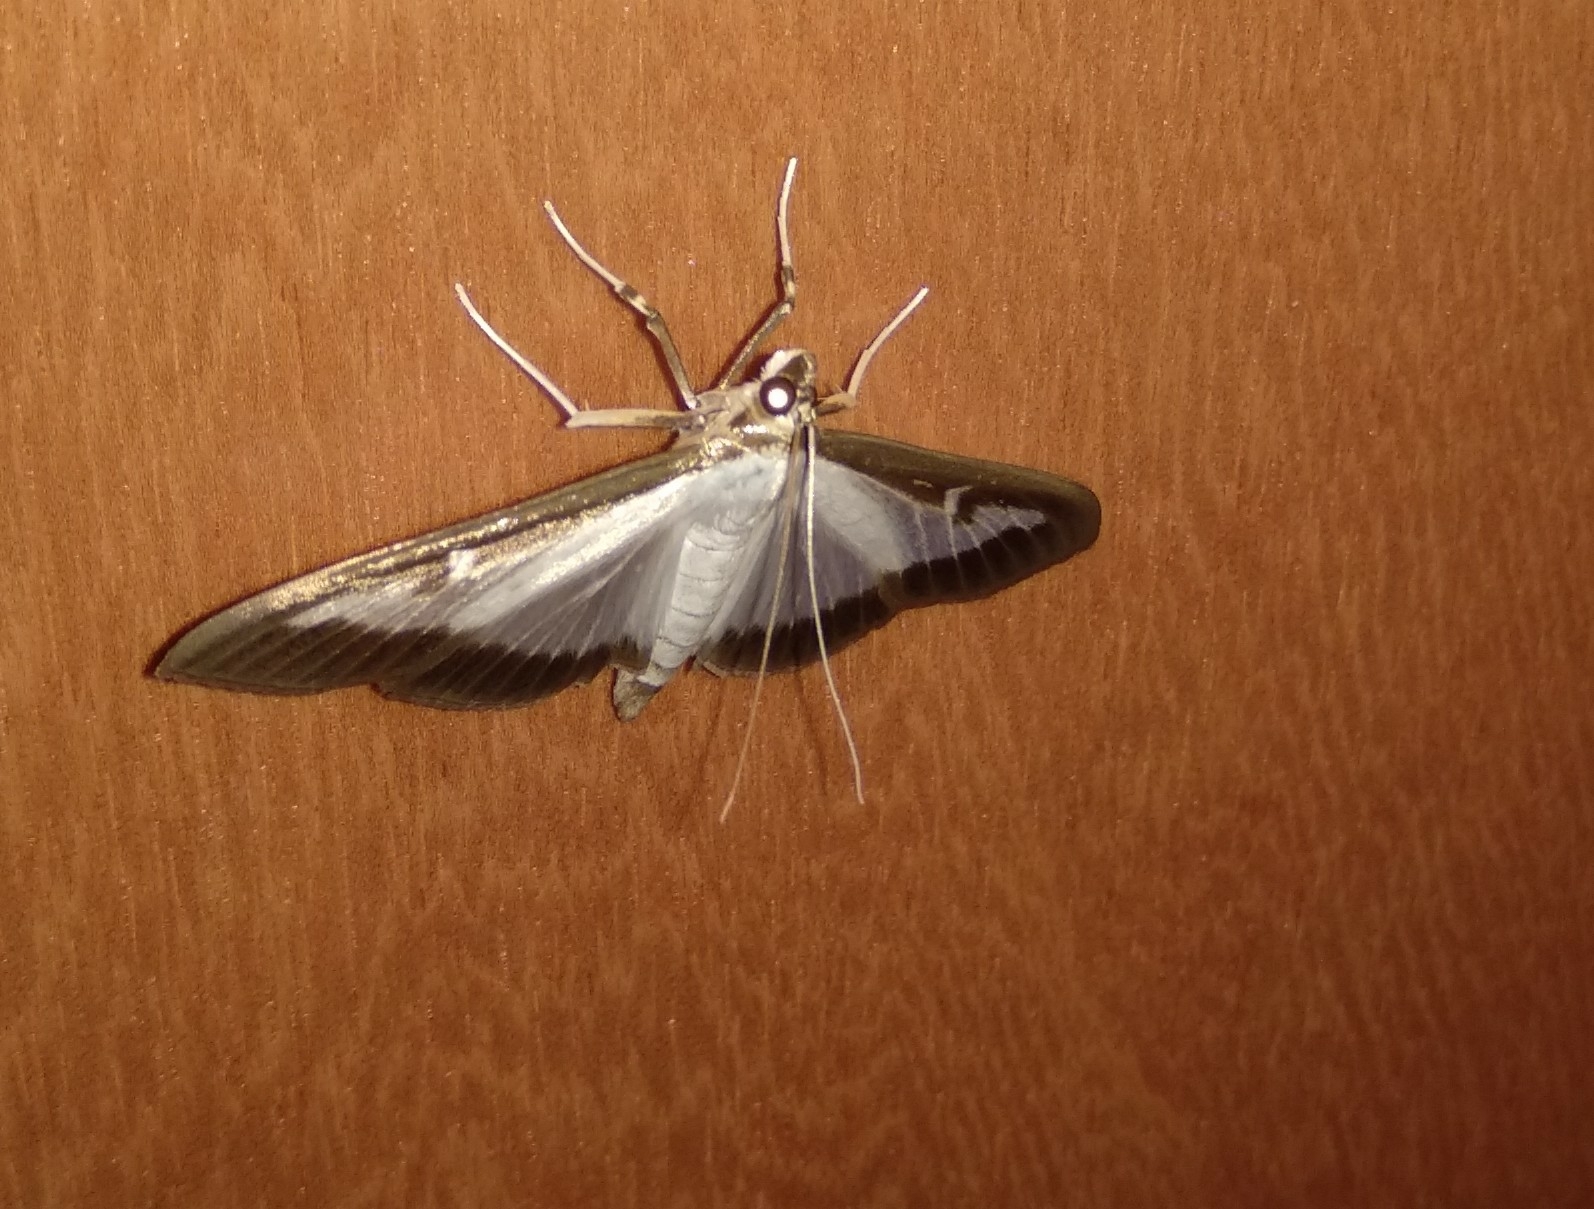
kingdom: Animalia
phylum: Arthropoda
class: Insecta
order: Lepidoptera
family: Crambidae
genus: Cydalima
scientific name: Cydalima perspectalis
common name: Box tree moth
